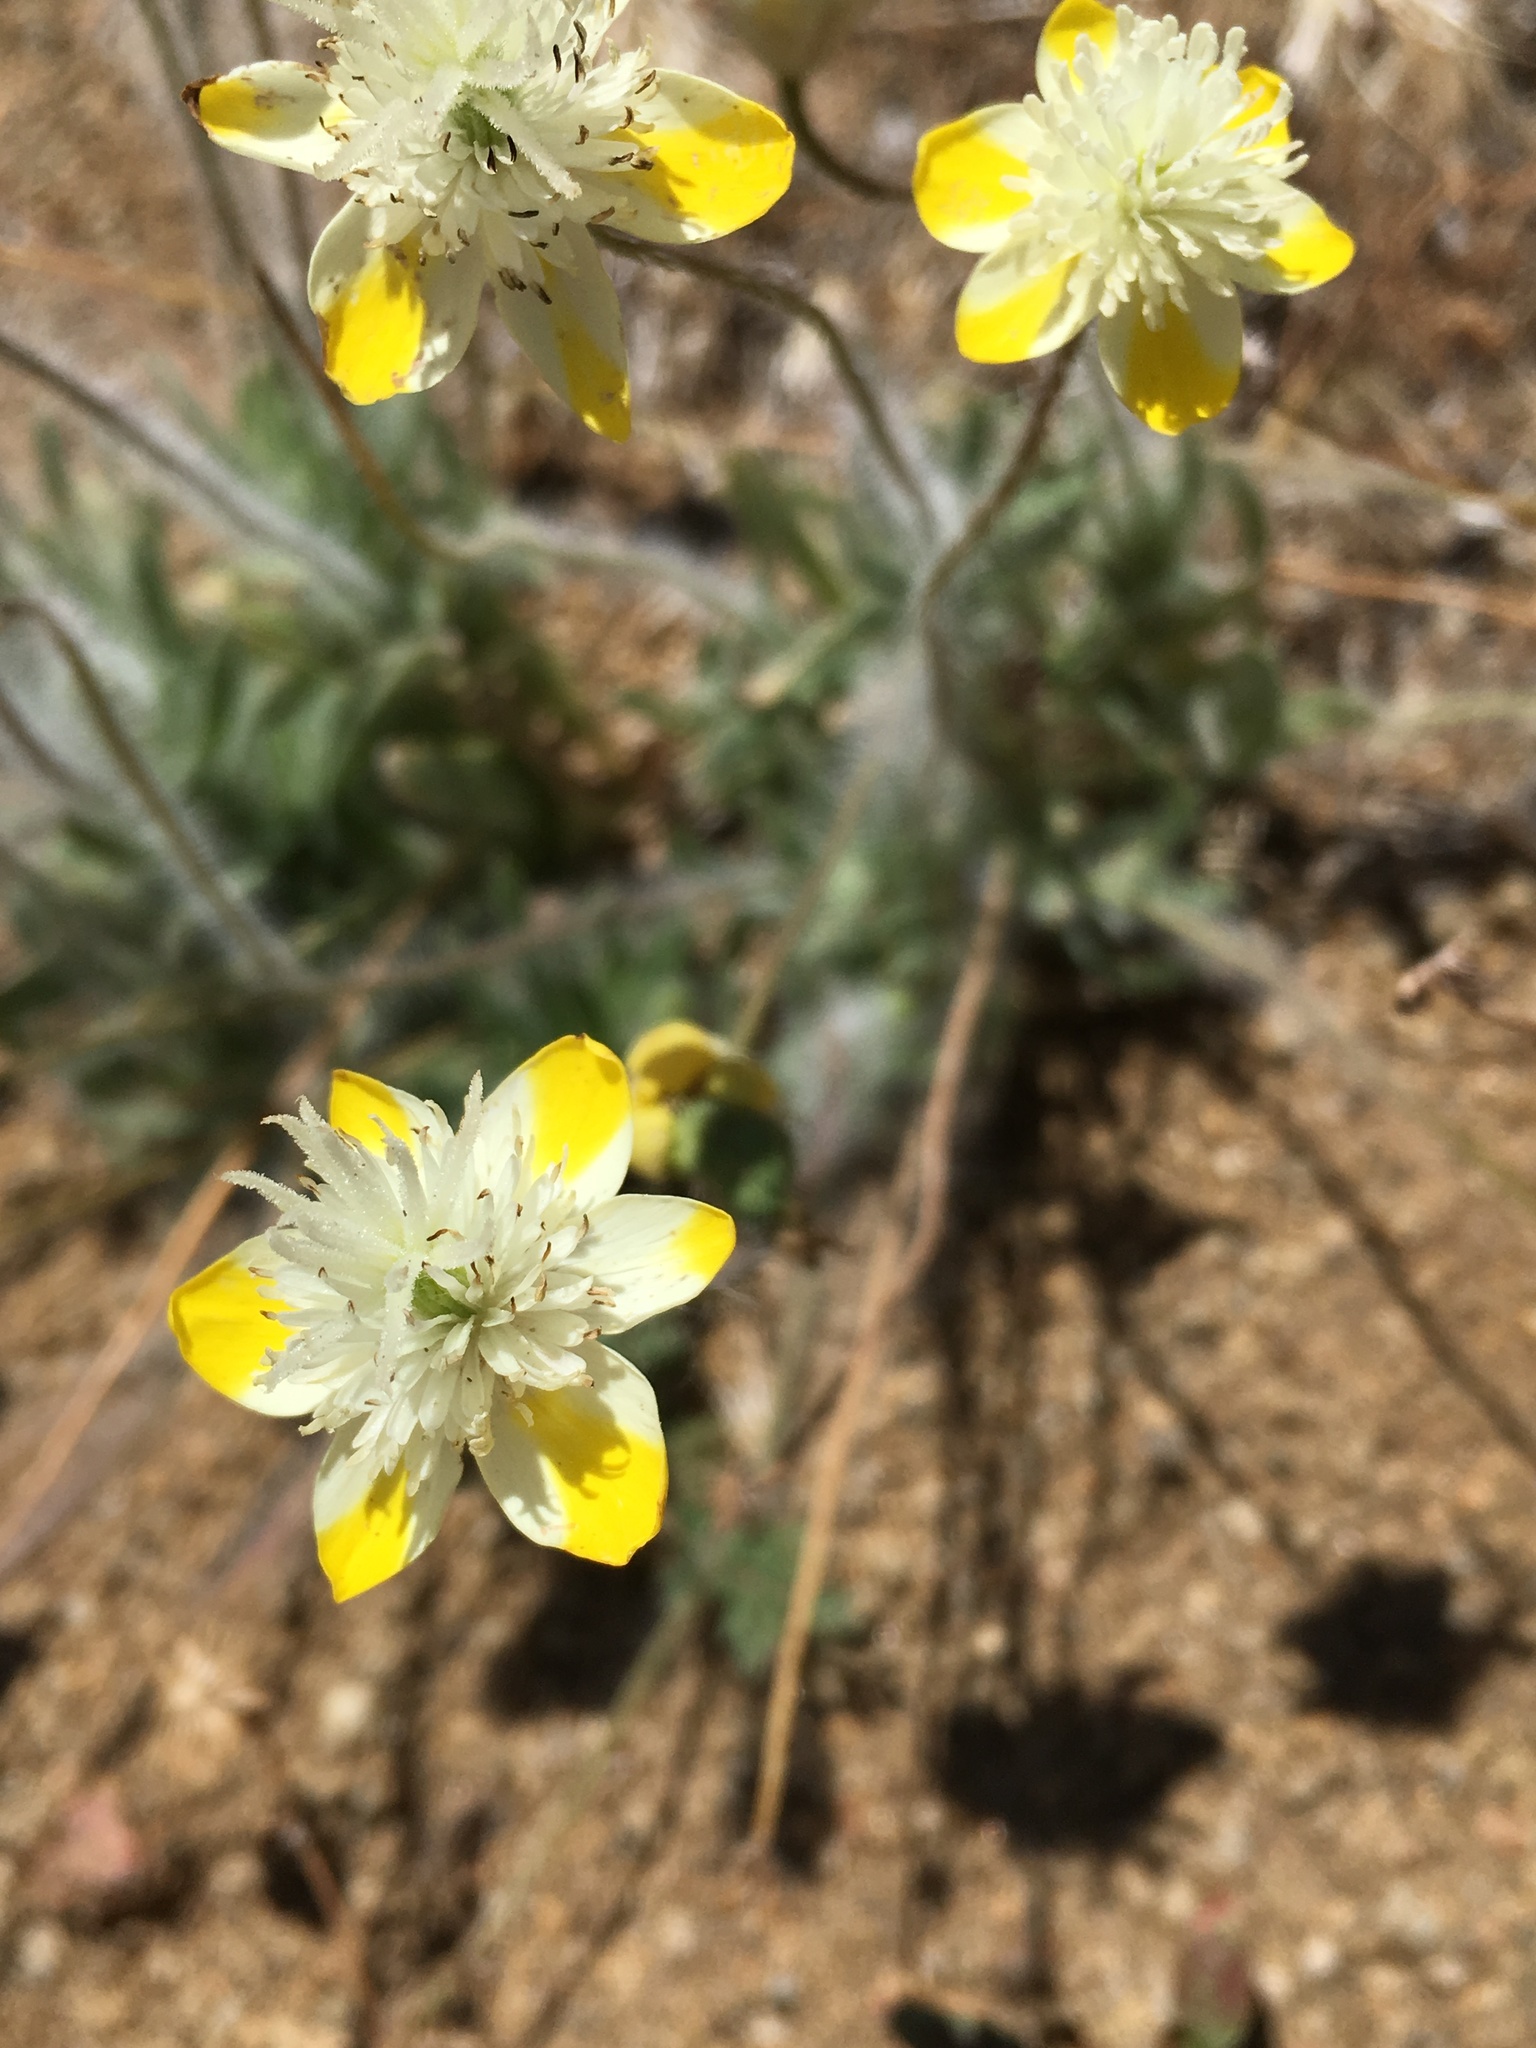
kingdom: Plantae
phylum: Tracheophyta
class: Magnoliopsida
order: Ranunculales
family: Papaveraceae
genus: Platystemon
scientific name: Platystemon californicus
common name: Cream-cups
